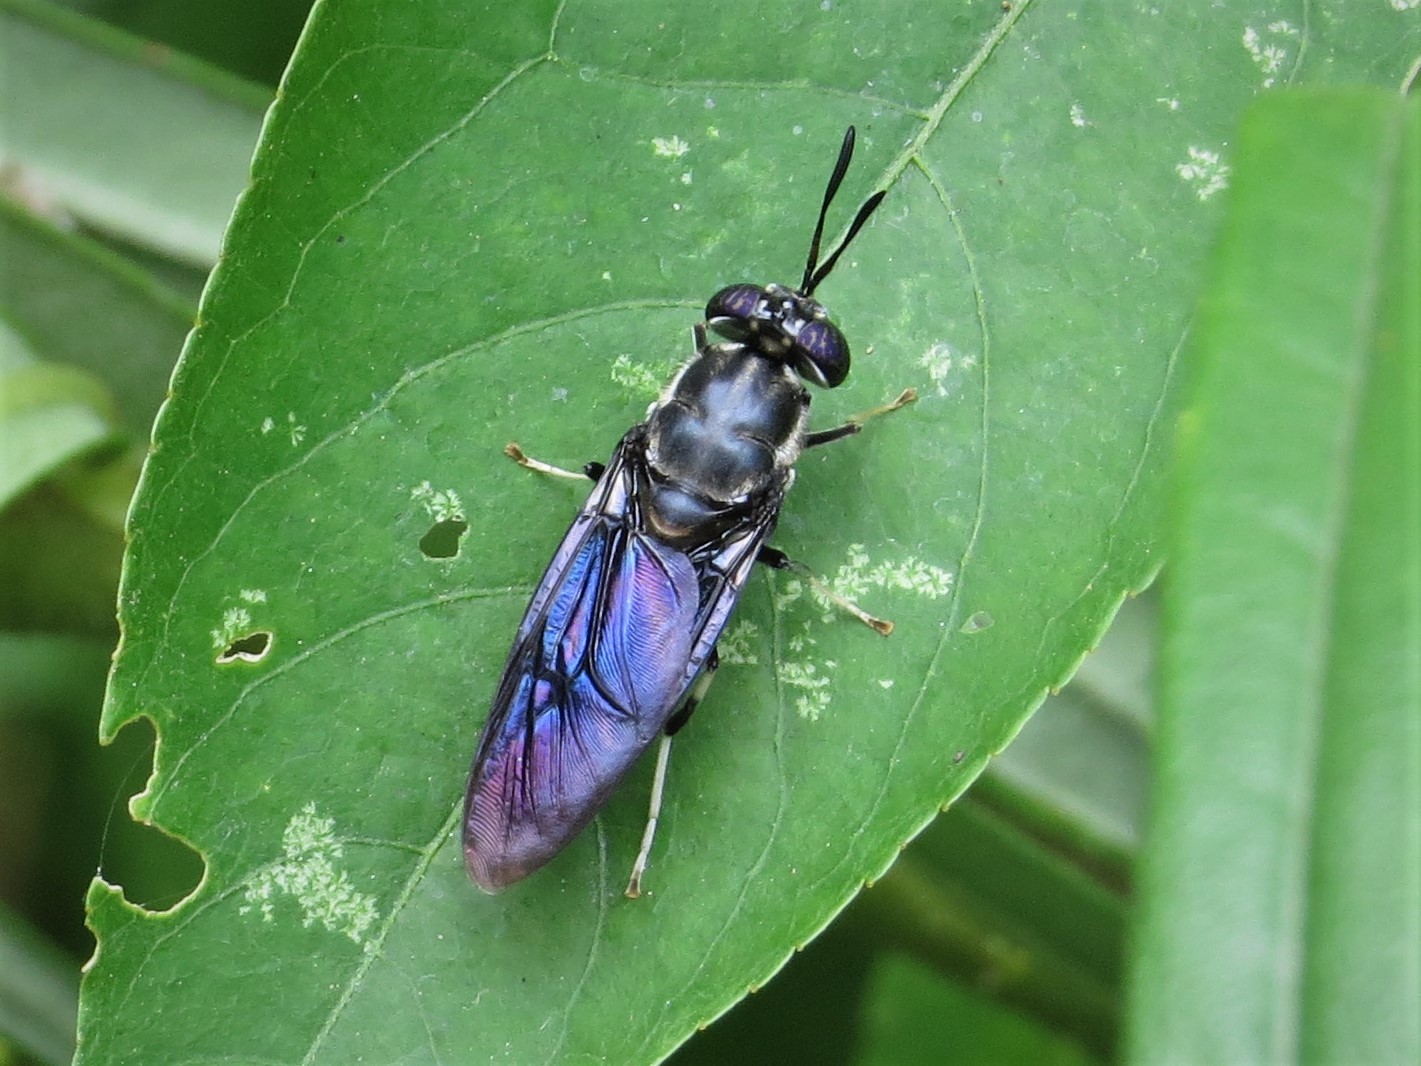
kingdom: Animalia
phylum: Arthropoda
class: Insecta
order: Diptera
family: Stratiomyidae
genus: Hermetia
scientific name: Hermetia illucens
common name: Black soldier fly
